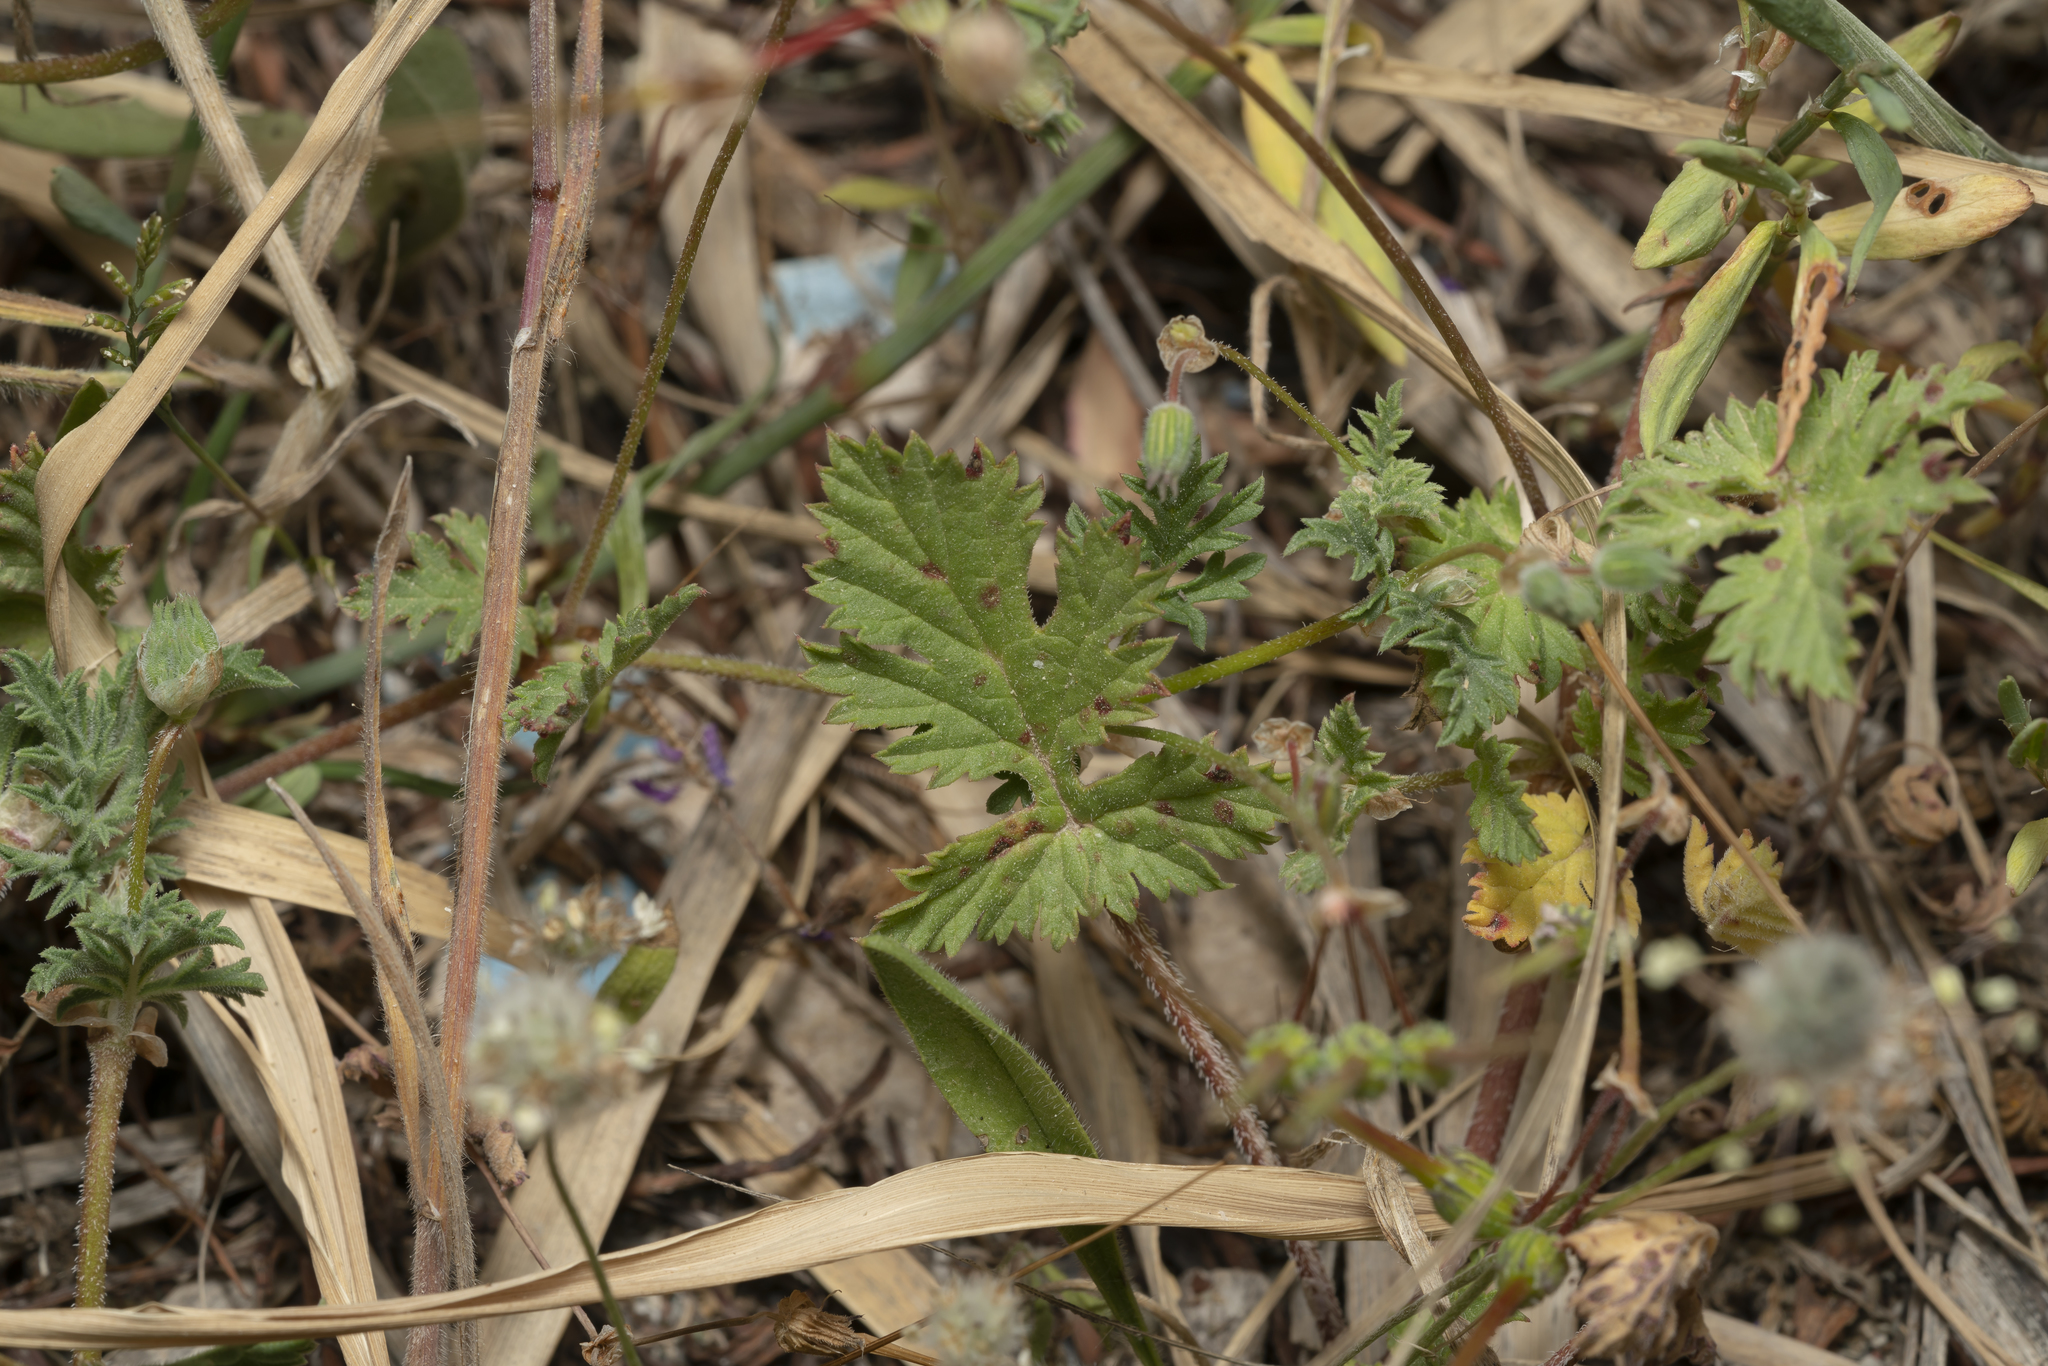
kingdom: Plantae
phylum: Tracheophyta
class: Magnoliopsida
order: Geraniales
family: Geraniaceae
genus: Erodium
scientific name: Erodium laciniatum
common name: Cutleaf stork's bill
